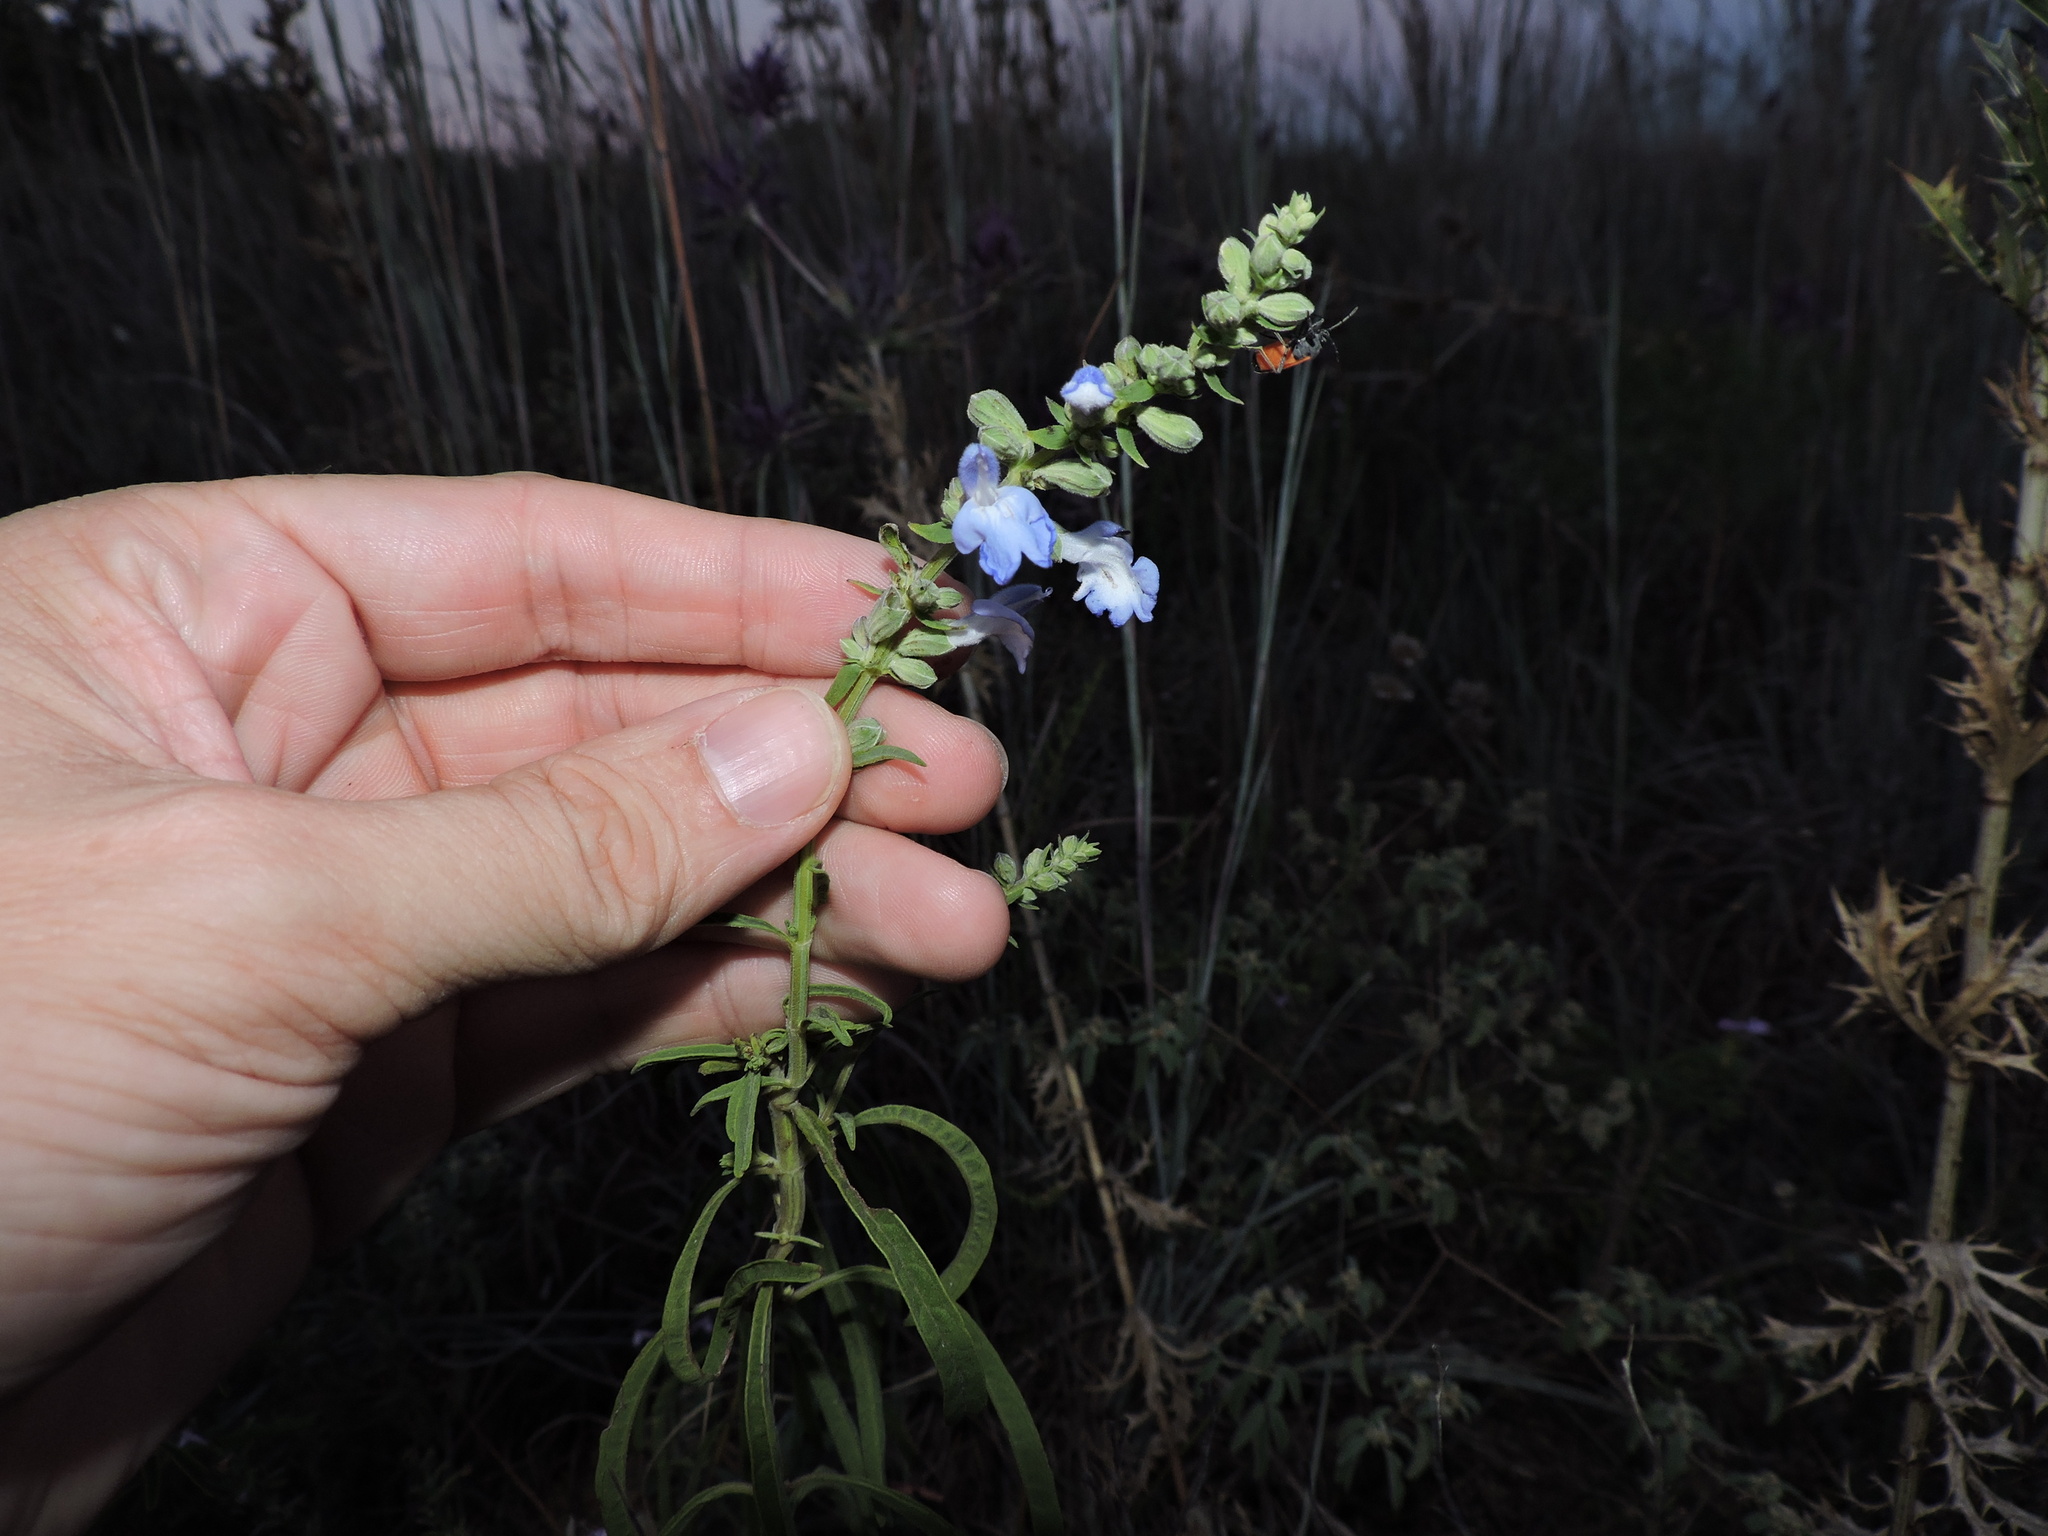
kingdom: Plantae
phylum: Tracheophyta
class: Magnoliopsida
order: Lamiales
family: Lamiaceae
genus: Salvia
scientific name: Salvia azurea
